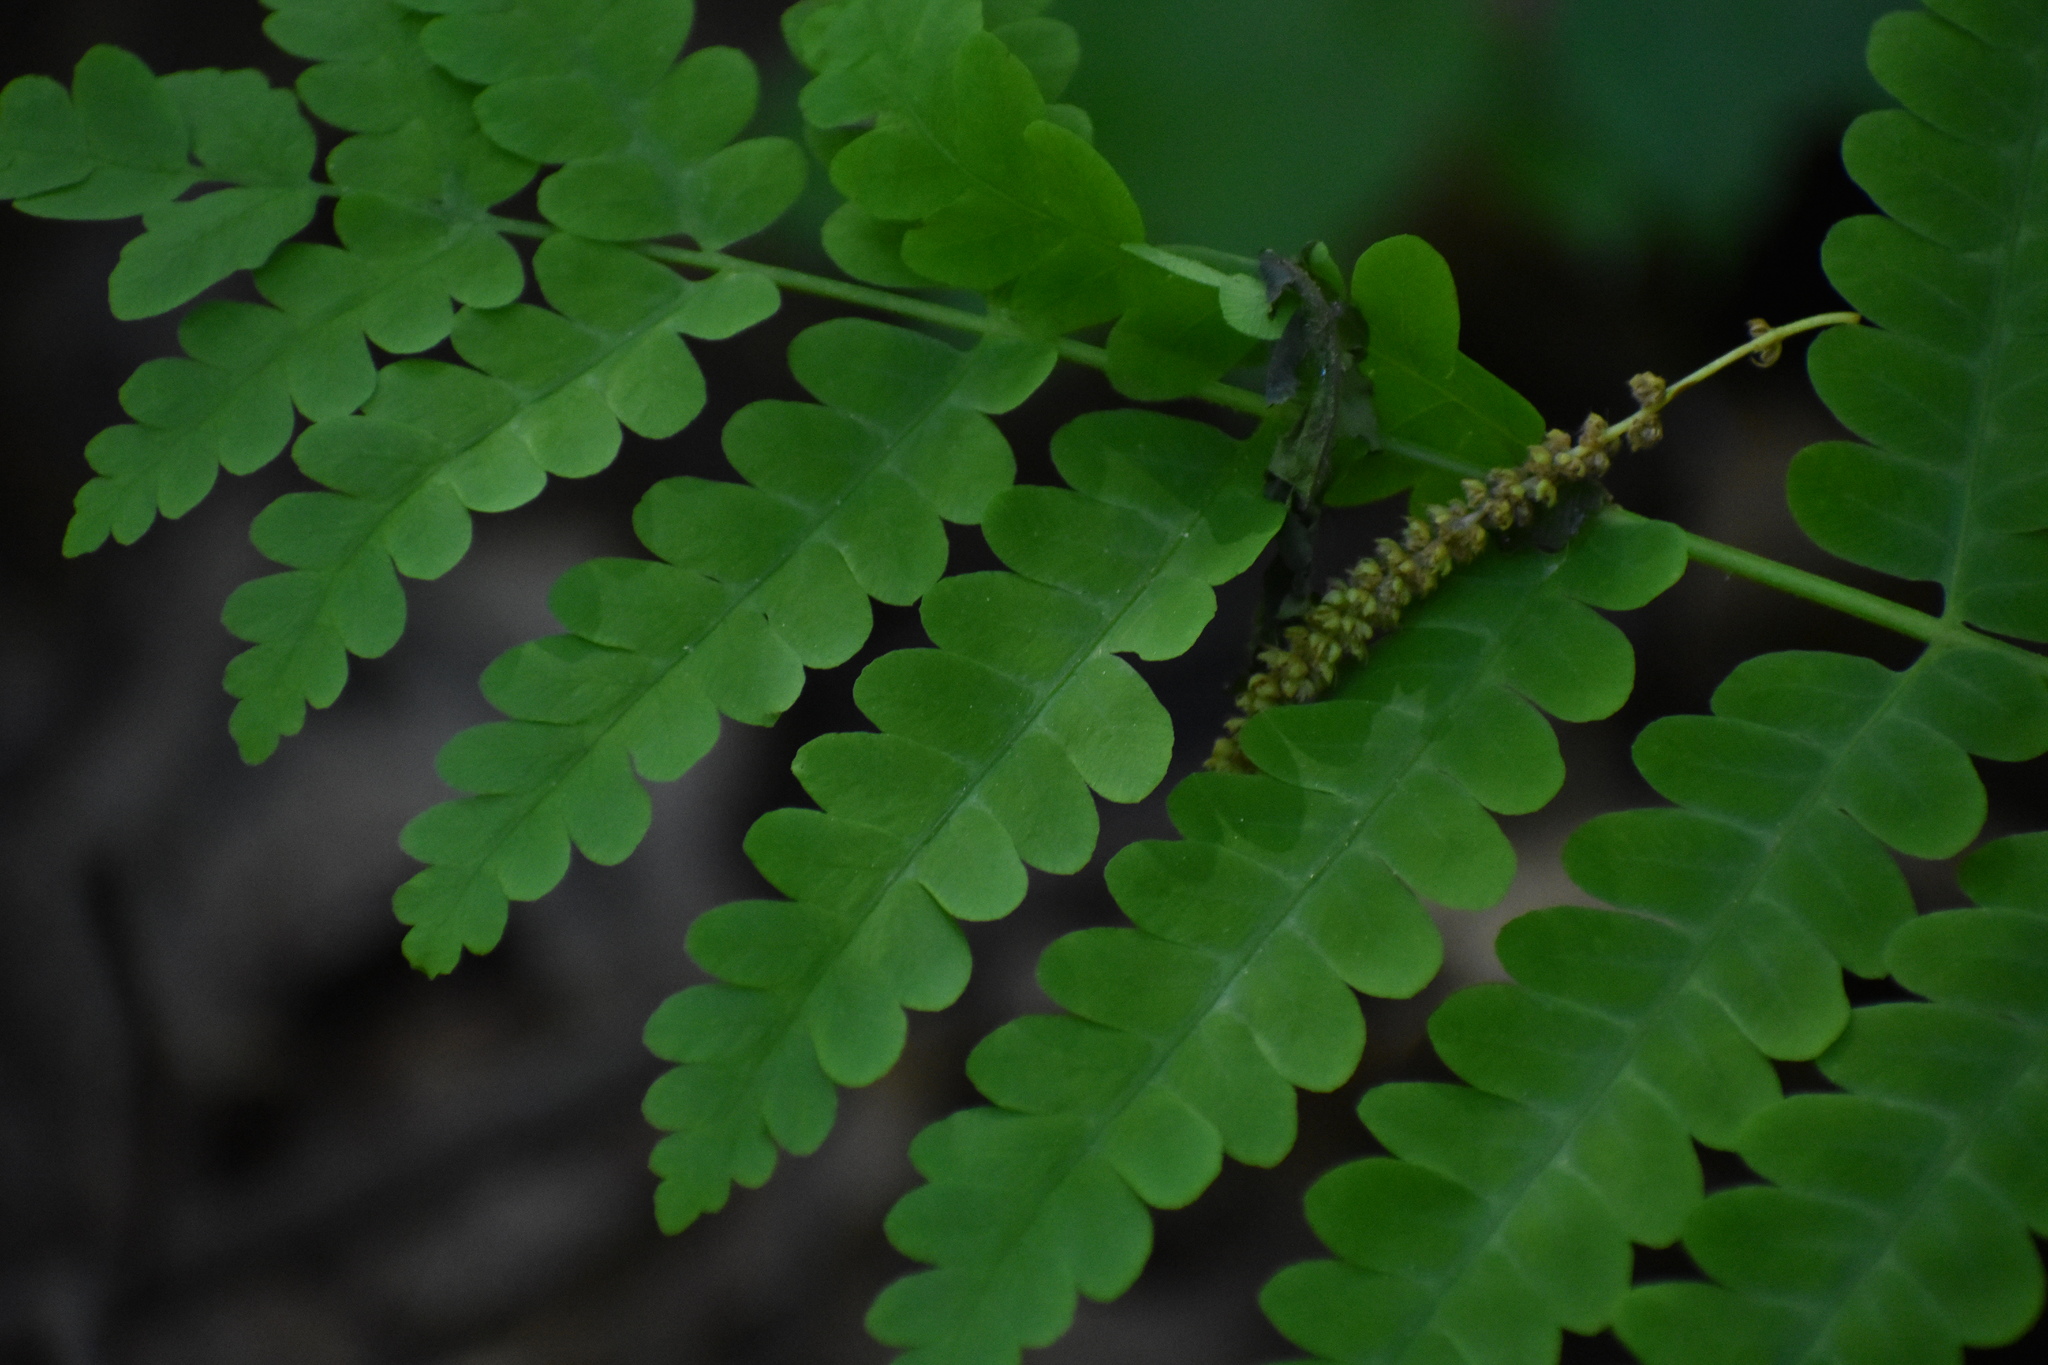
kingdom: Plantae
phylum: Tracheophyta
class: Polypodiopsida
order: Osmundales
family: Osmundaceae
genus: Claytosmunda
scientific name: Claytosmunda claytoniana
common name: Clayton's fern
